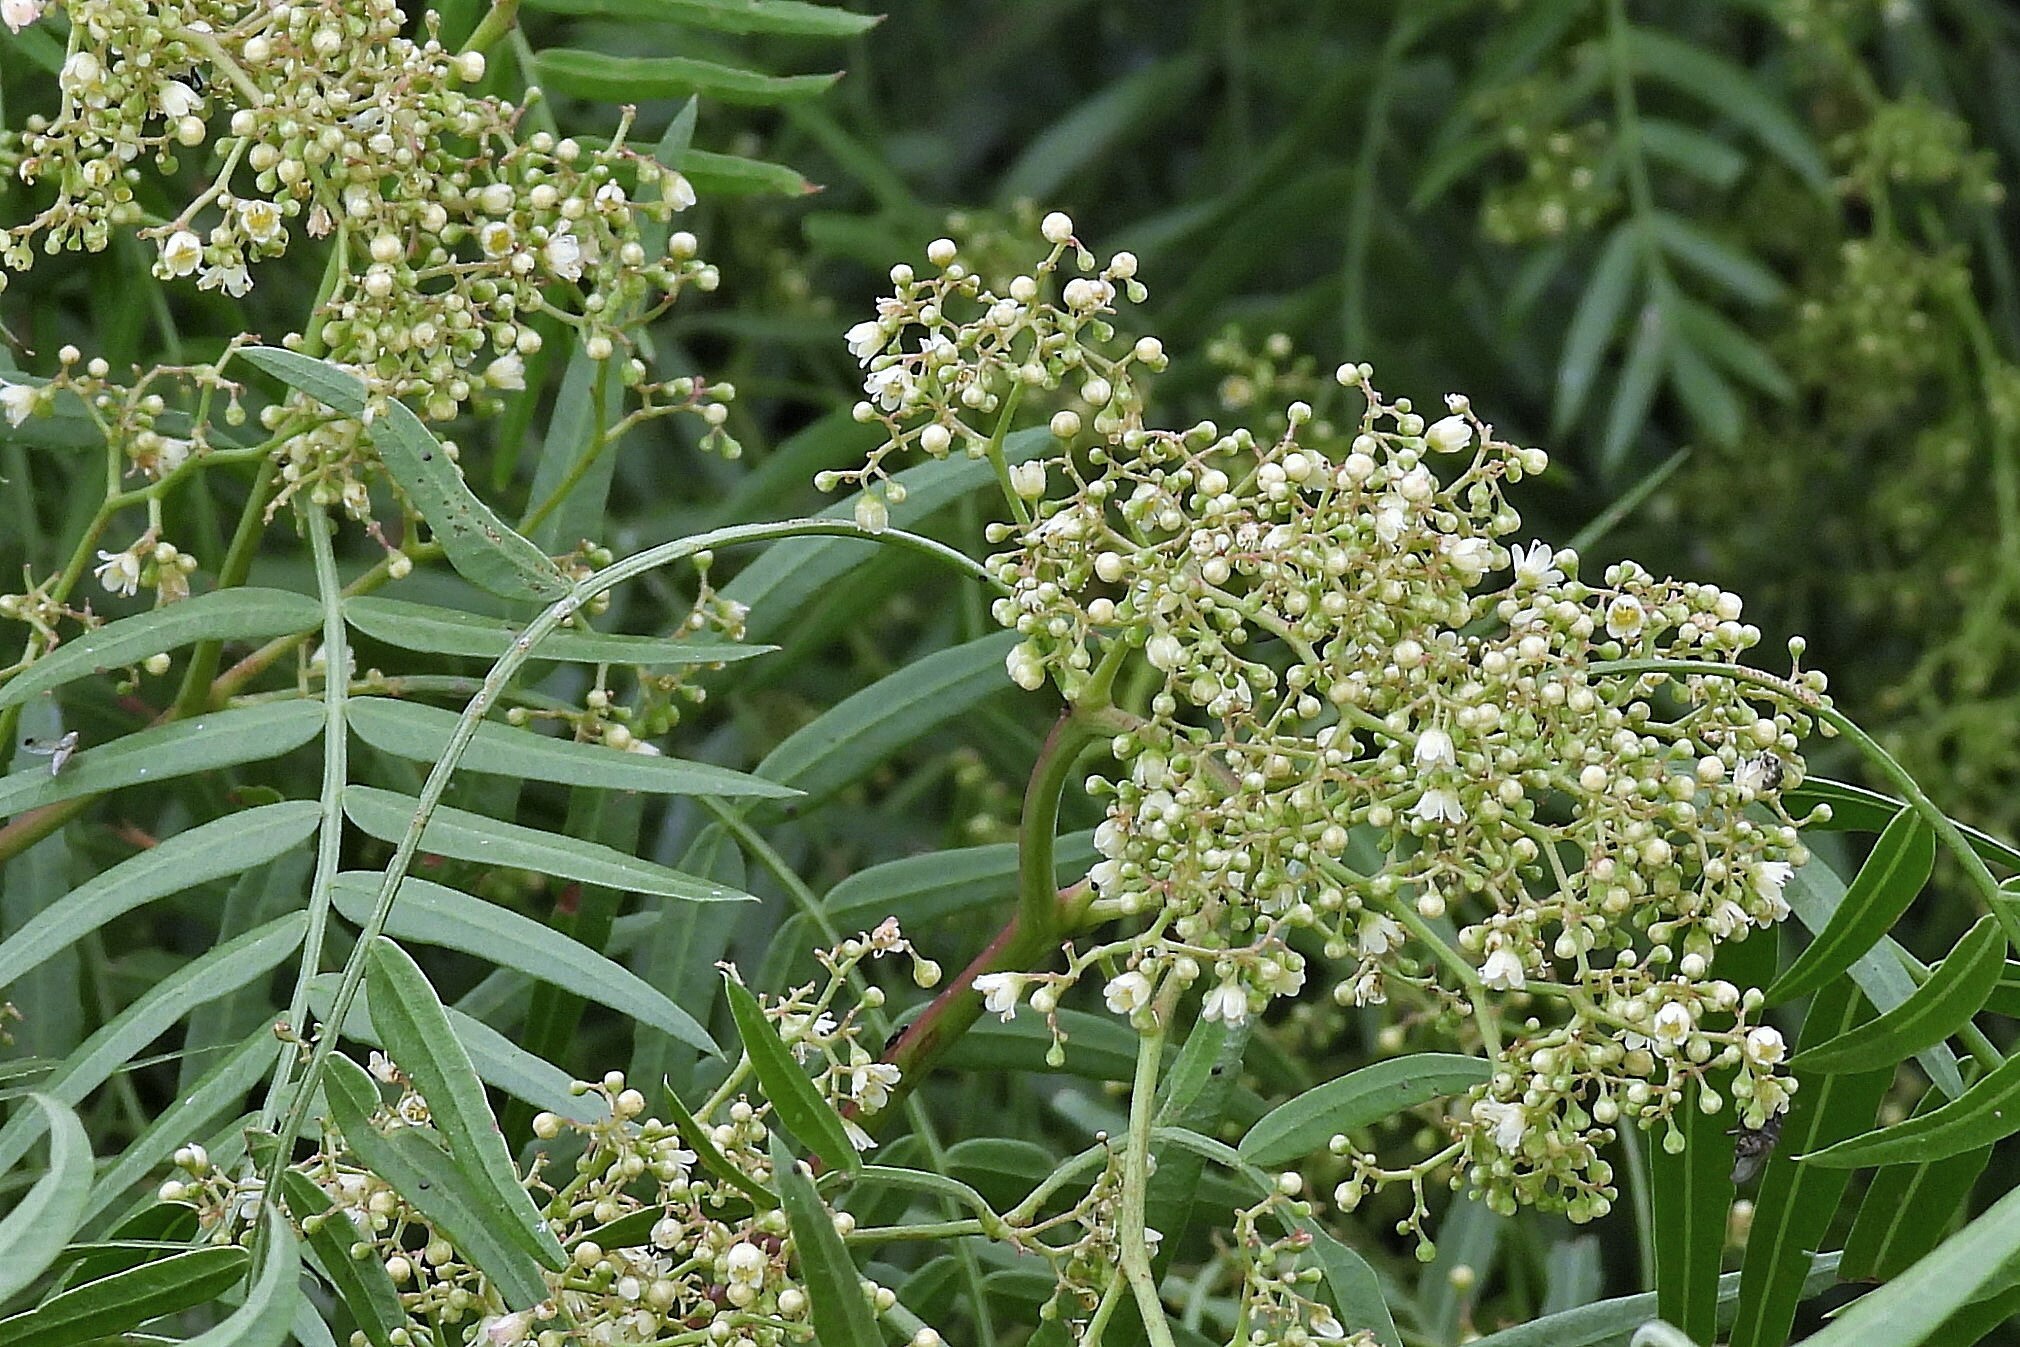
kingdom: Plantae
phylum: Tracheophyta
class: Magnoliopsida
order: Sapindales
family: Anacardiaceae
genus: Schinus
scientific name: Schinus molle
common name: Peruvian peppertree
